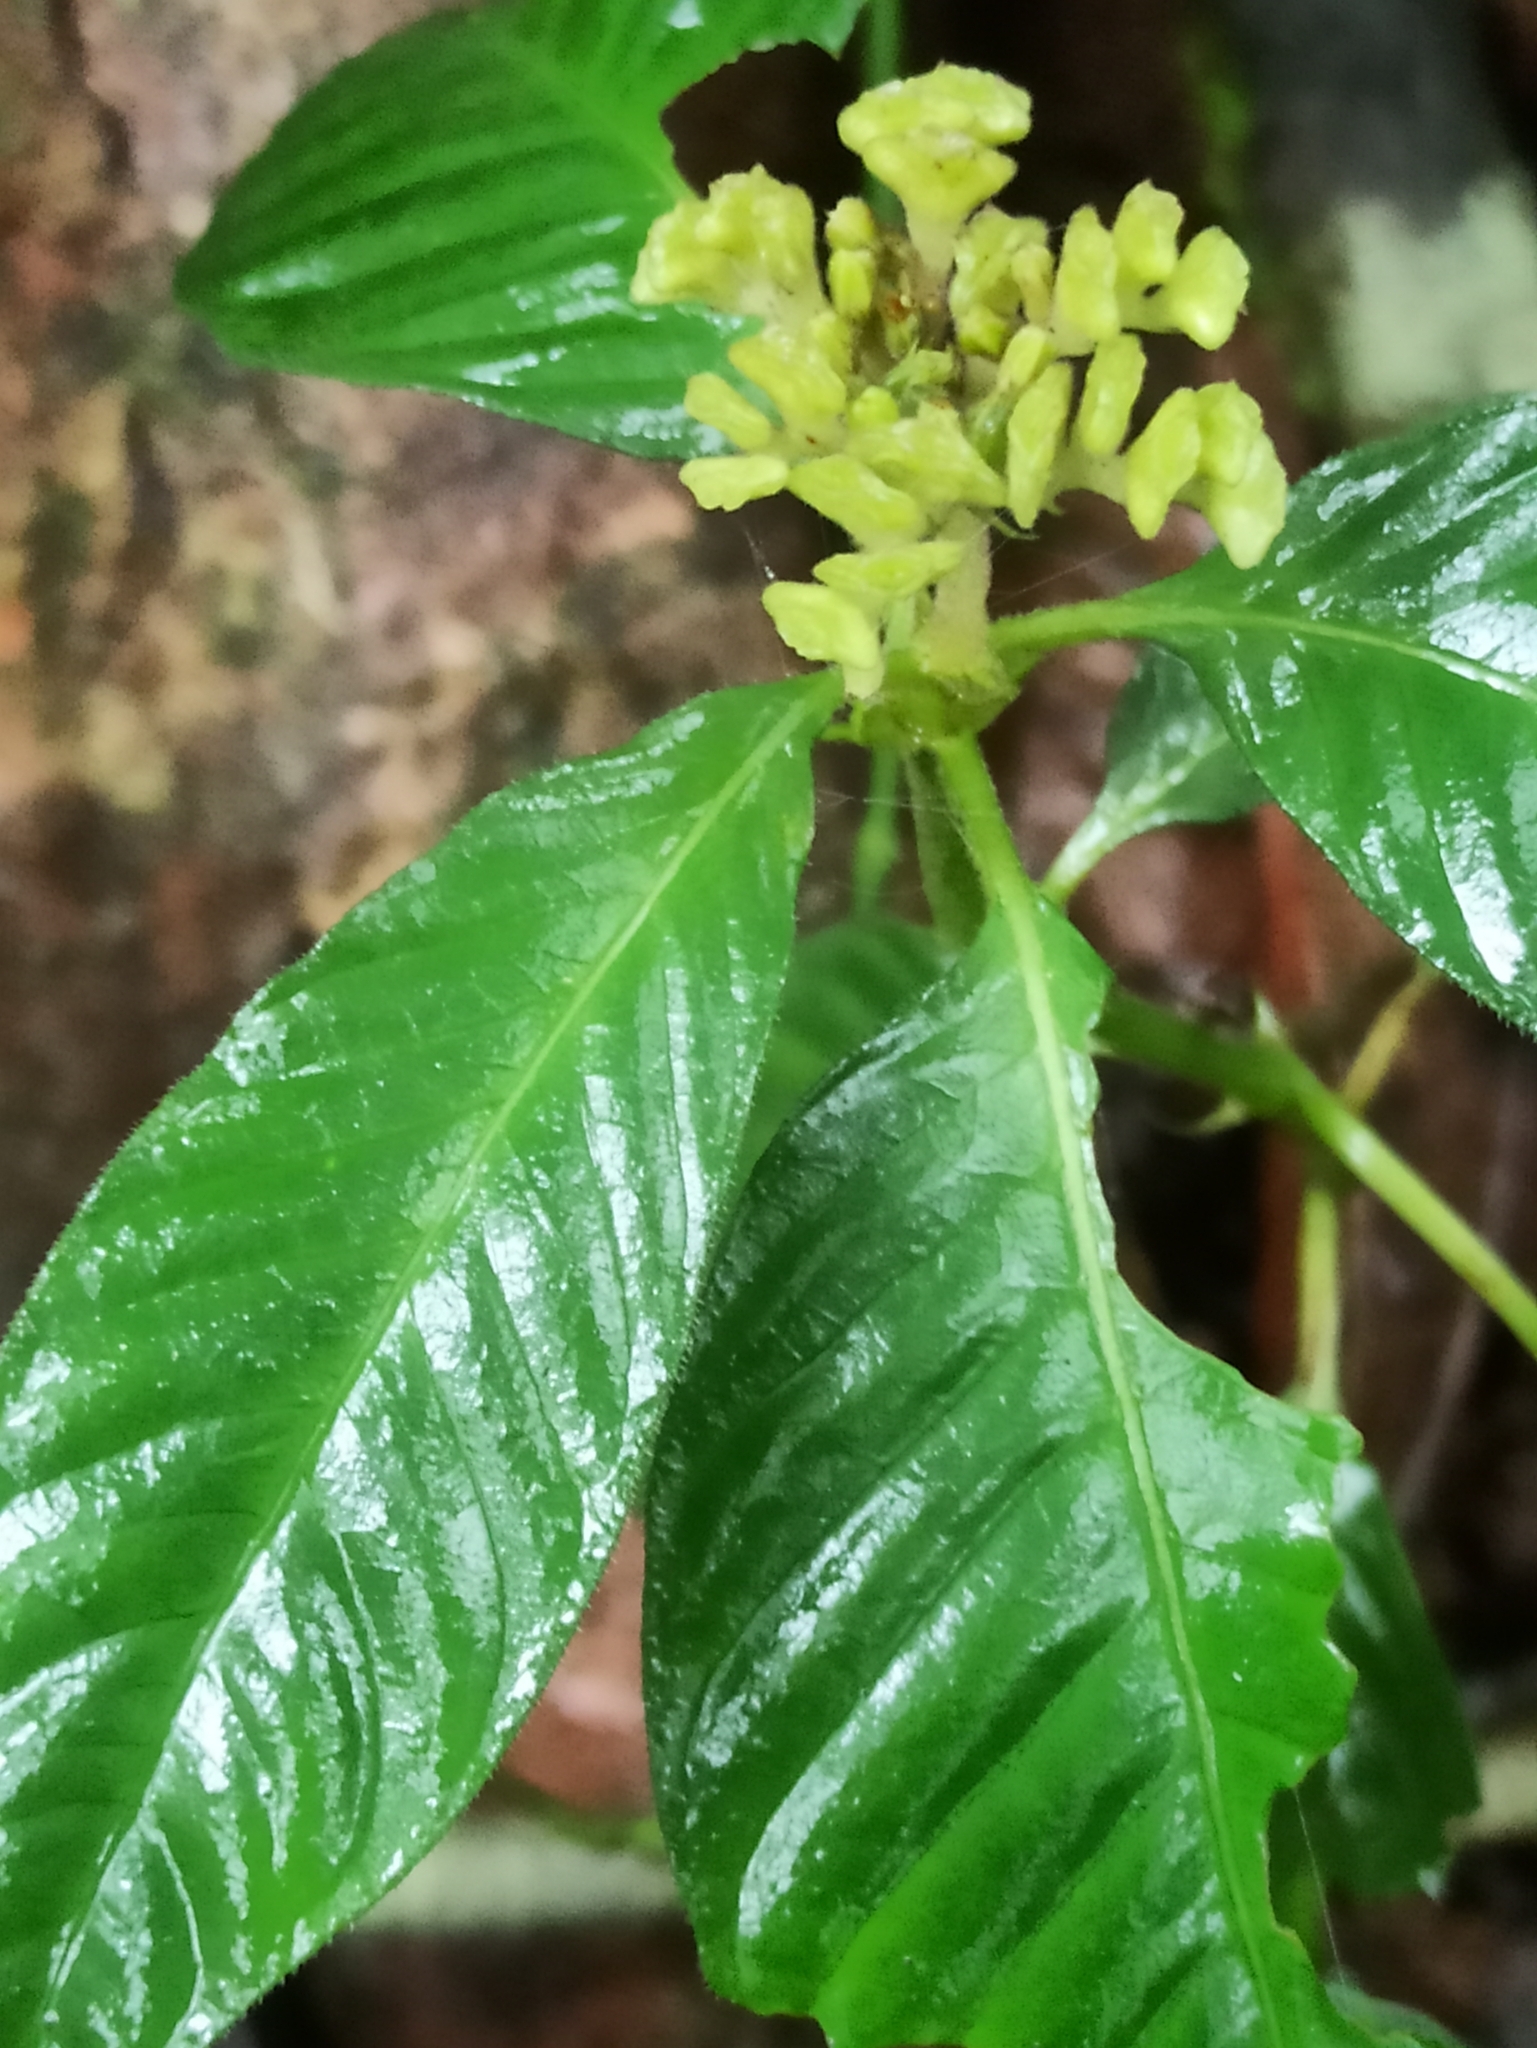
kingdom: Plantae
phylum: Tracheophyta
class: Magnoliopsida
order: Gentianales
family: Rubiaceae
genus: Ophiorrhiza
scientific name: Ophiorrhiza mungos
